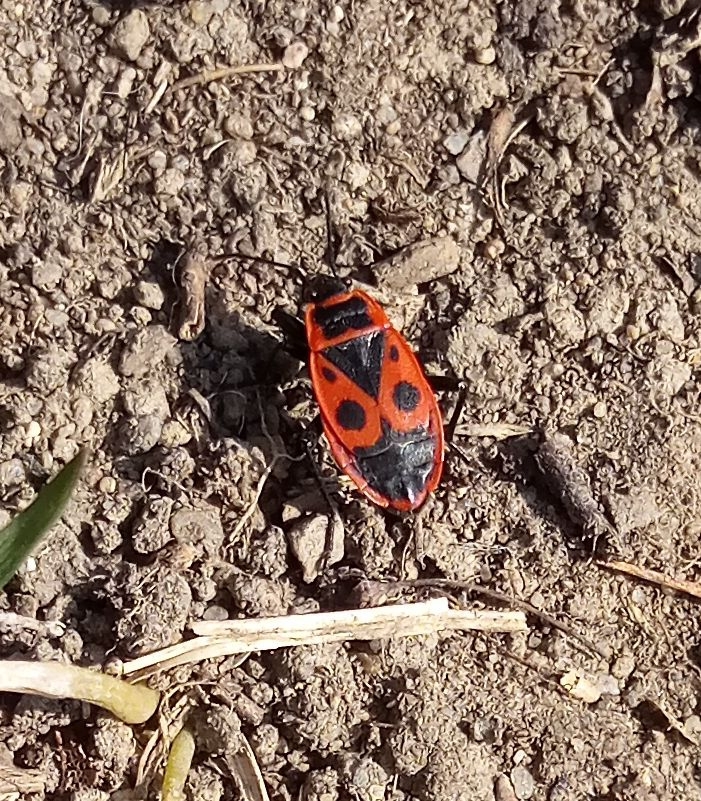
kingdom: Animalia
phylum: Arthropoda
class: Insecta
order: Hemiptera
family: Pyrrhocoridae
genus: Pyrrhocoris
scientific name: Pyrrhocoris apterus
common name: Firebug
